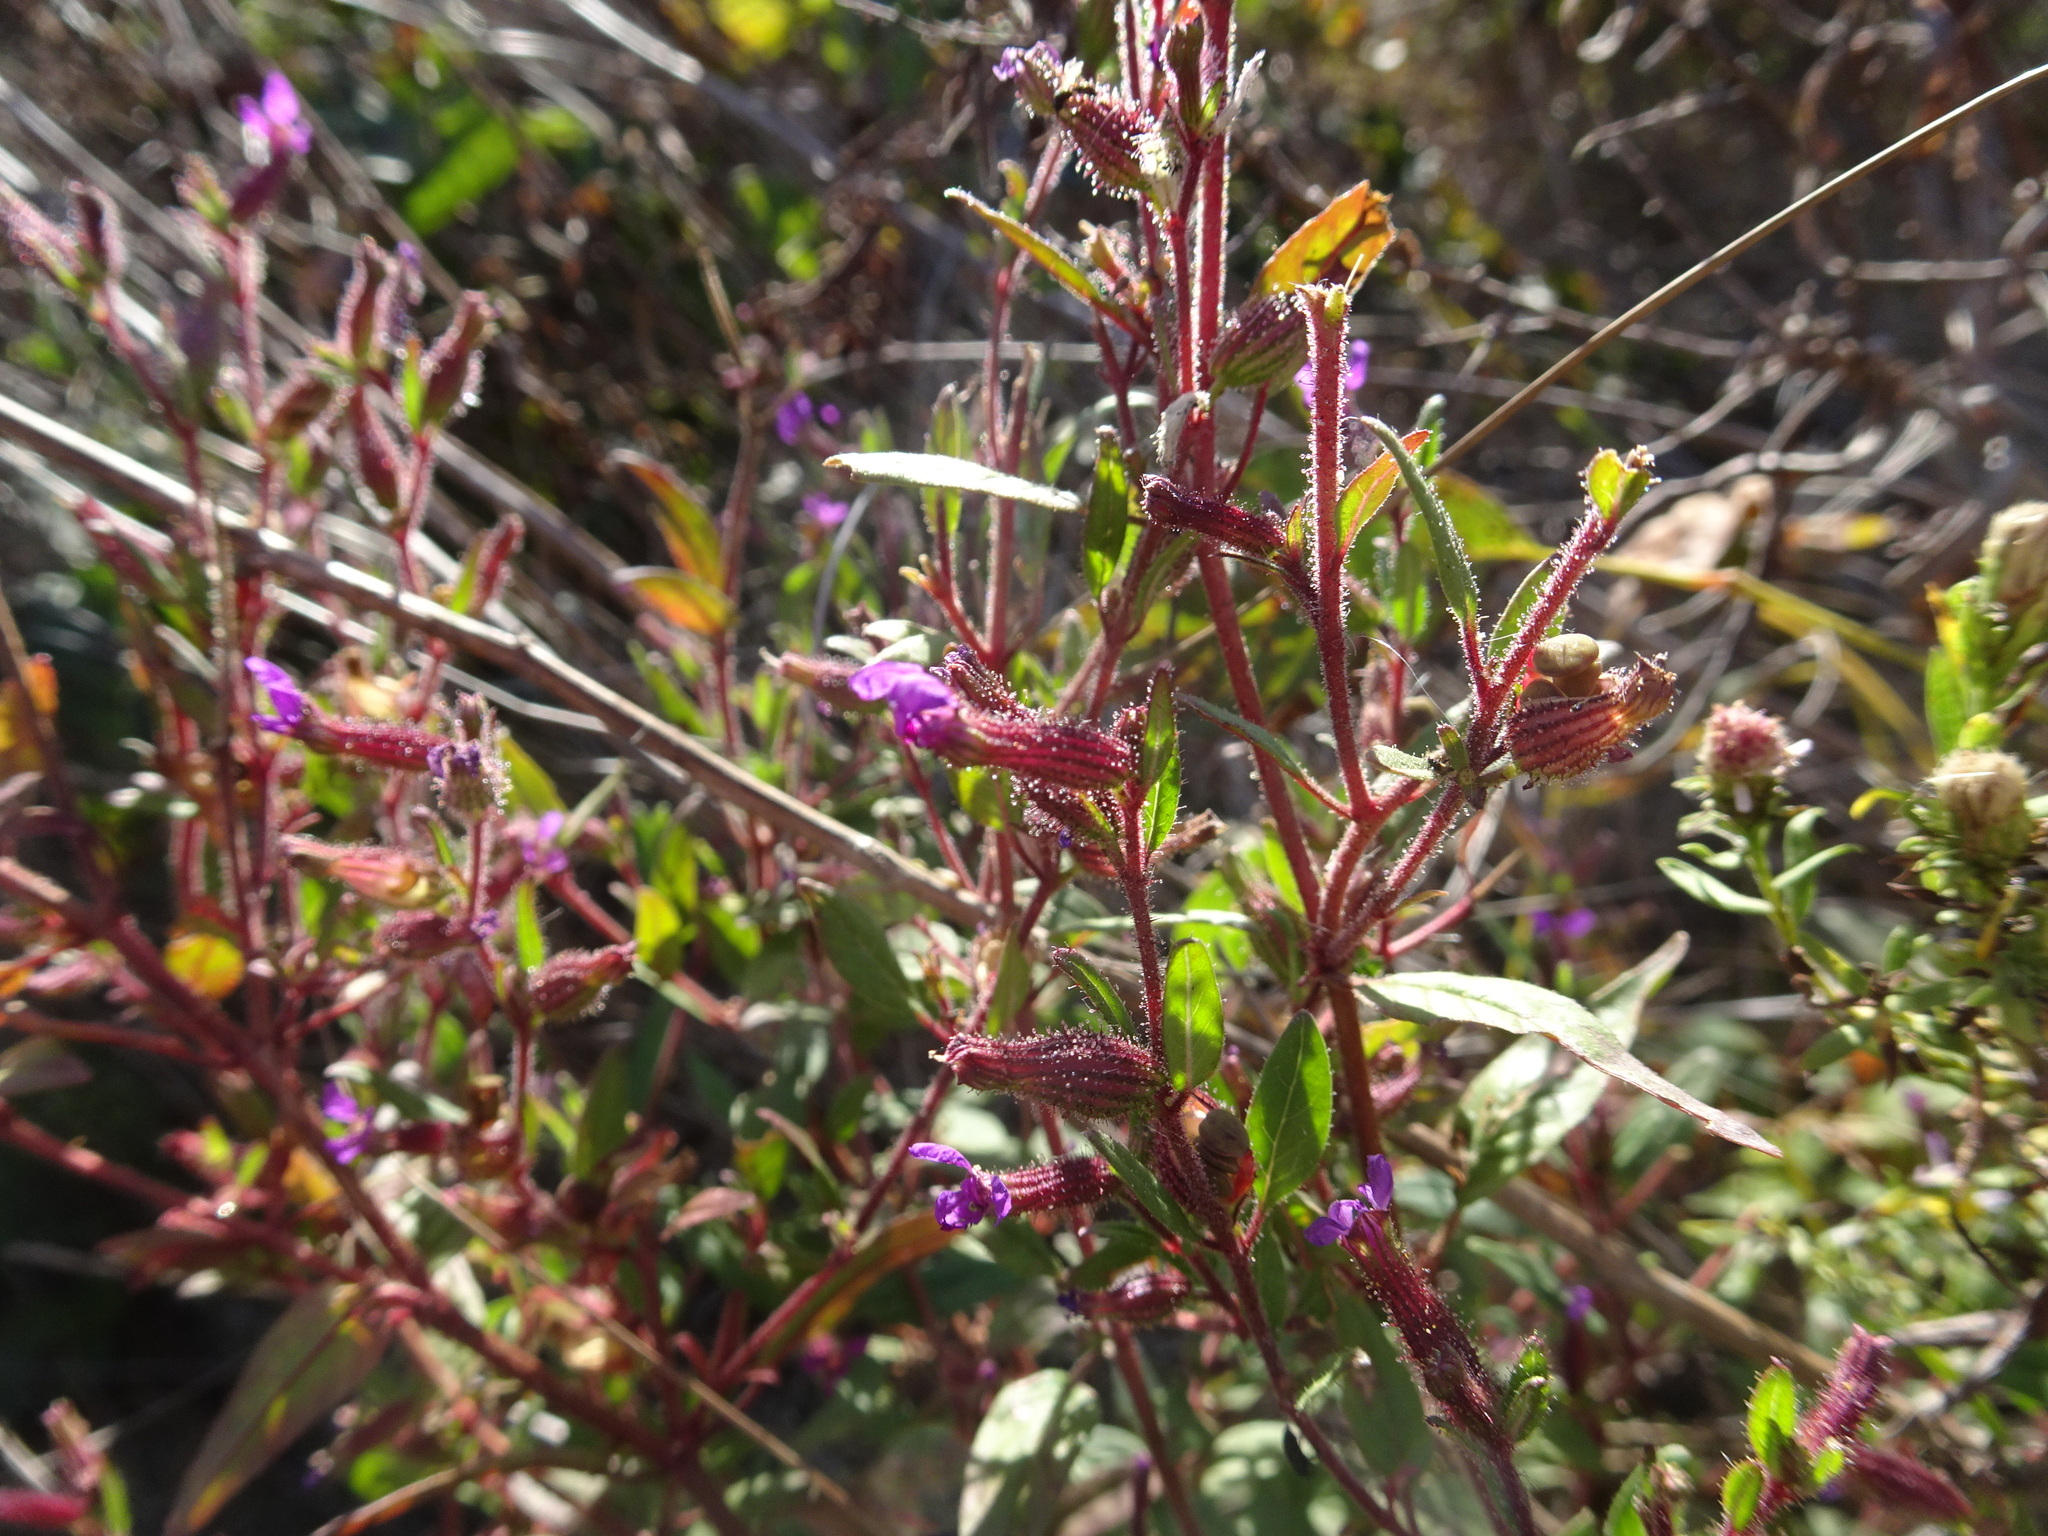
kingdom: Plantae
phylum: Tracheophyta
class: Magnoliopsida
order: Myrtales
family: Lythraceae
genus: Cuphea
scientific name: Cuphea viscosissima
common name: Clammy cuphea
